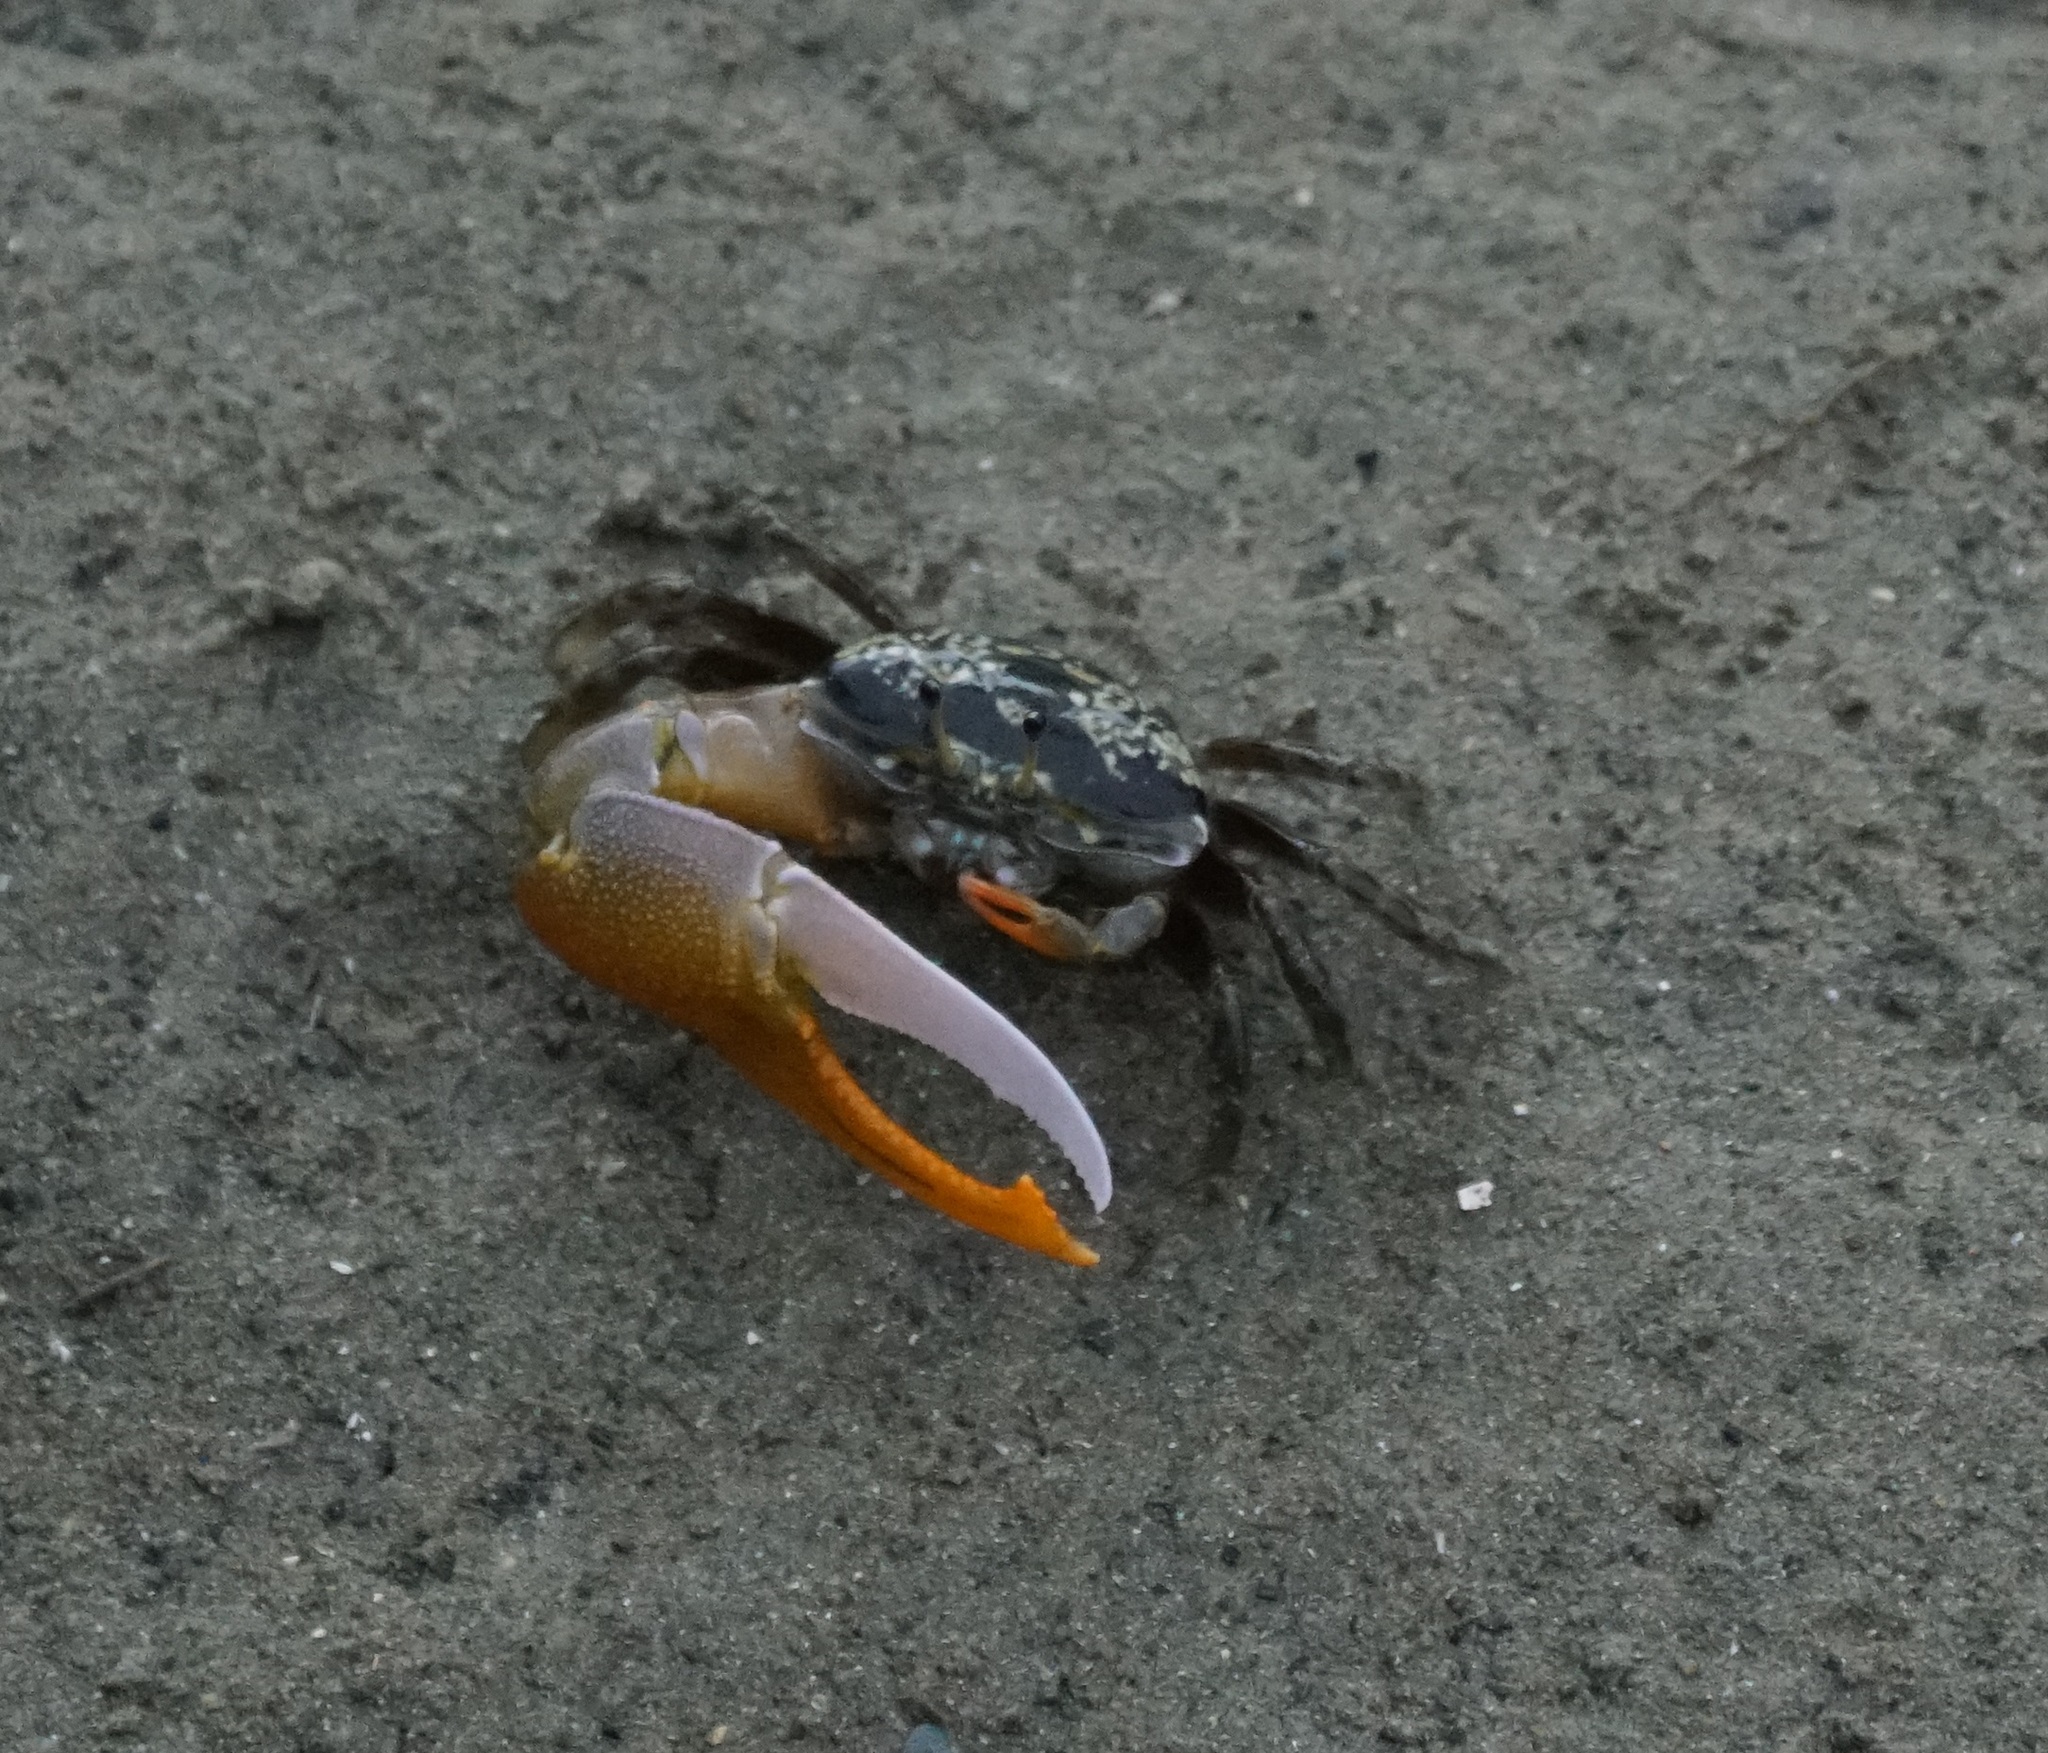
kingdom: Animalia
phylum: Arthropoda
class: Malacostraca
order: Decapoda
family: Ocypodidae
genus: Gelasimus
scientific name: Gelasimus vomeris
